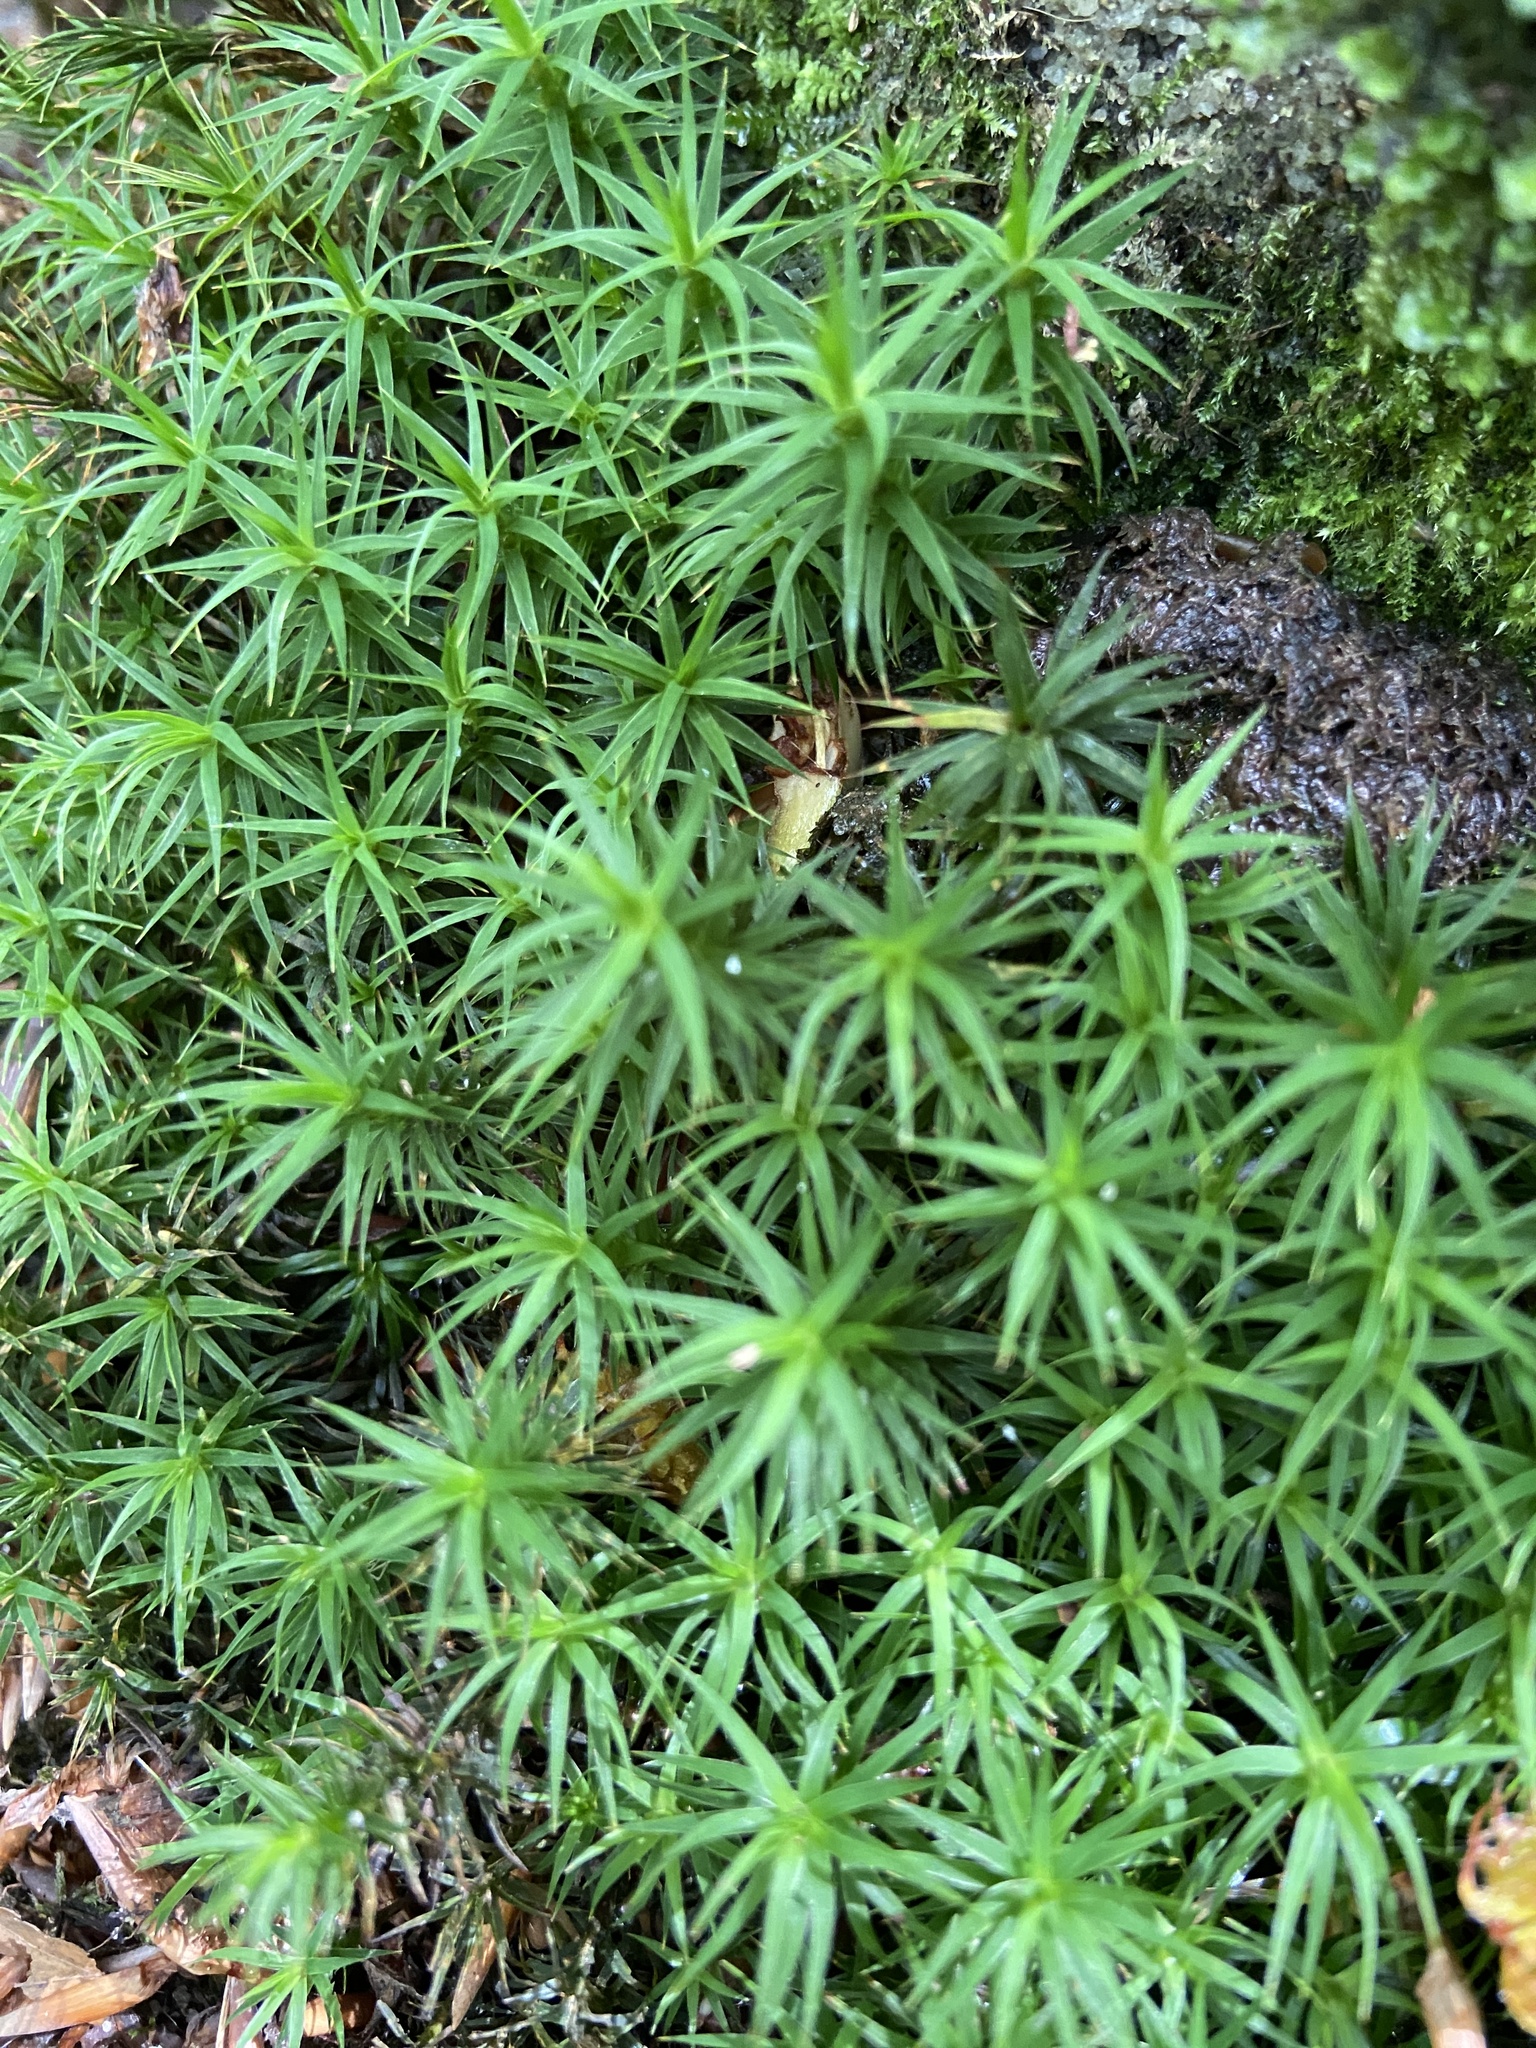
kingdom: Plantae
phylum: Bryophyta
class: Polytrichopsida
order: Polytrichales
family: Polytrichaceae
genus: Polytrichum
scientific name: Polytrichum formosum
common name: Bank haircap moss
